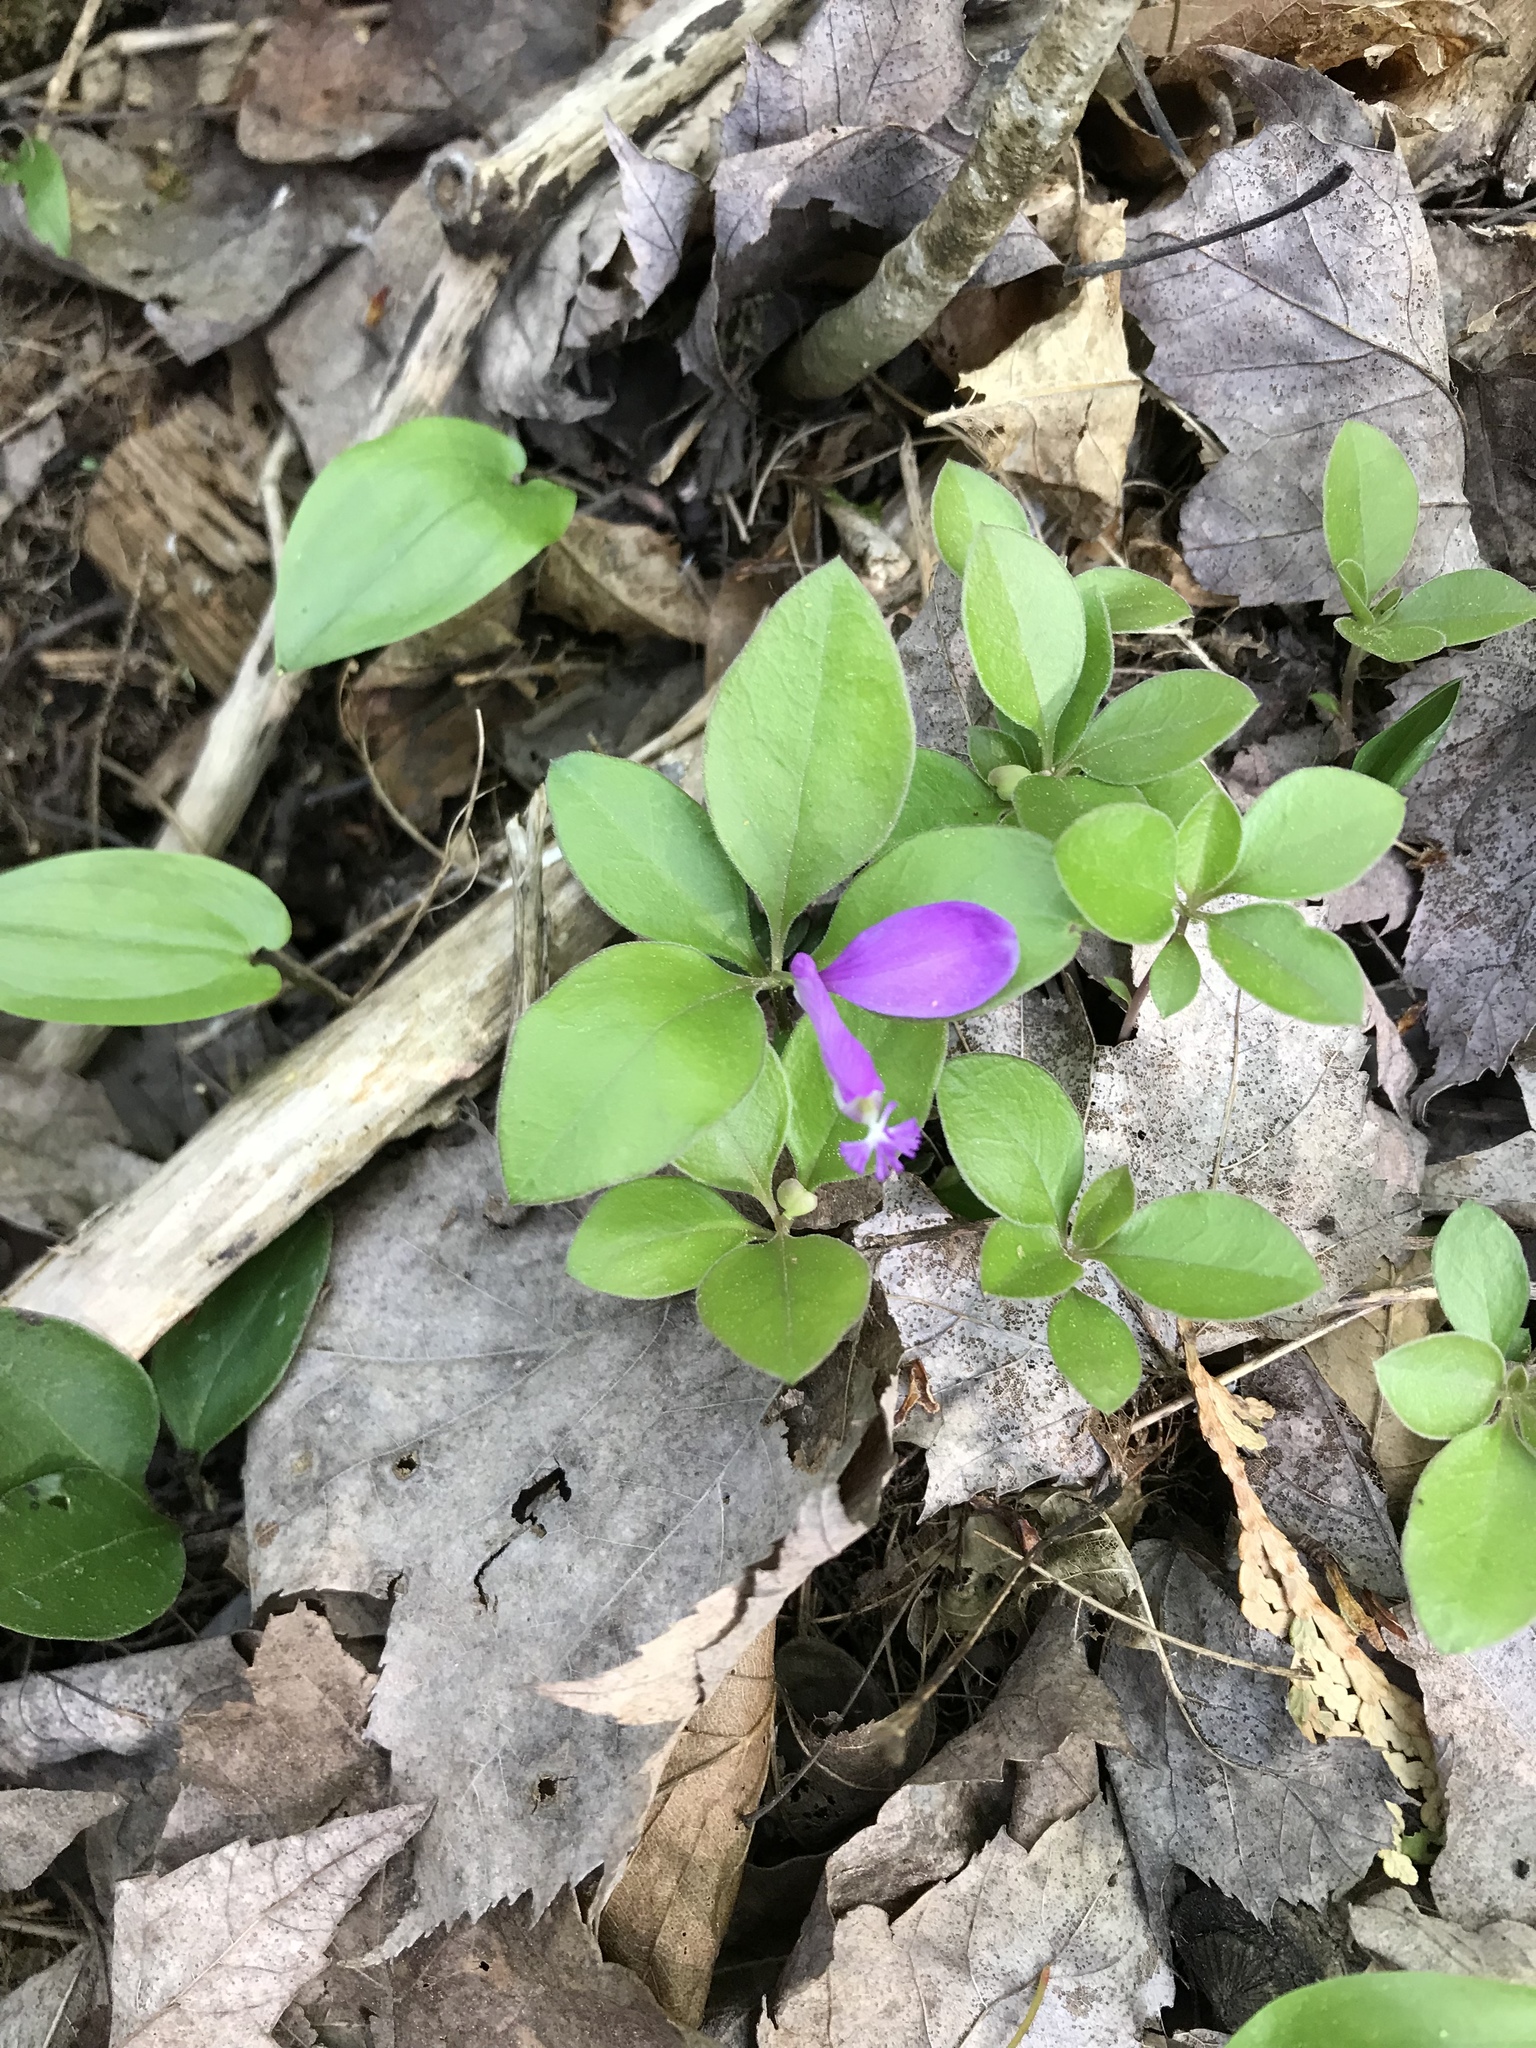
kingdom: Plantae
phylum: Tracheophyta
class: Magnoliopsida
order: Fabales
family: Polygalaceae
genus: Polygaloides
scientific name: Polygaloides paucifolia
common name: Bird-on-the-wing
